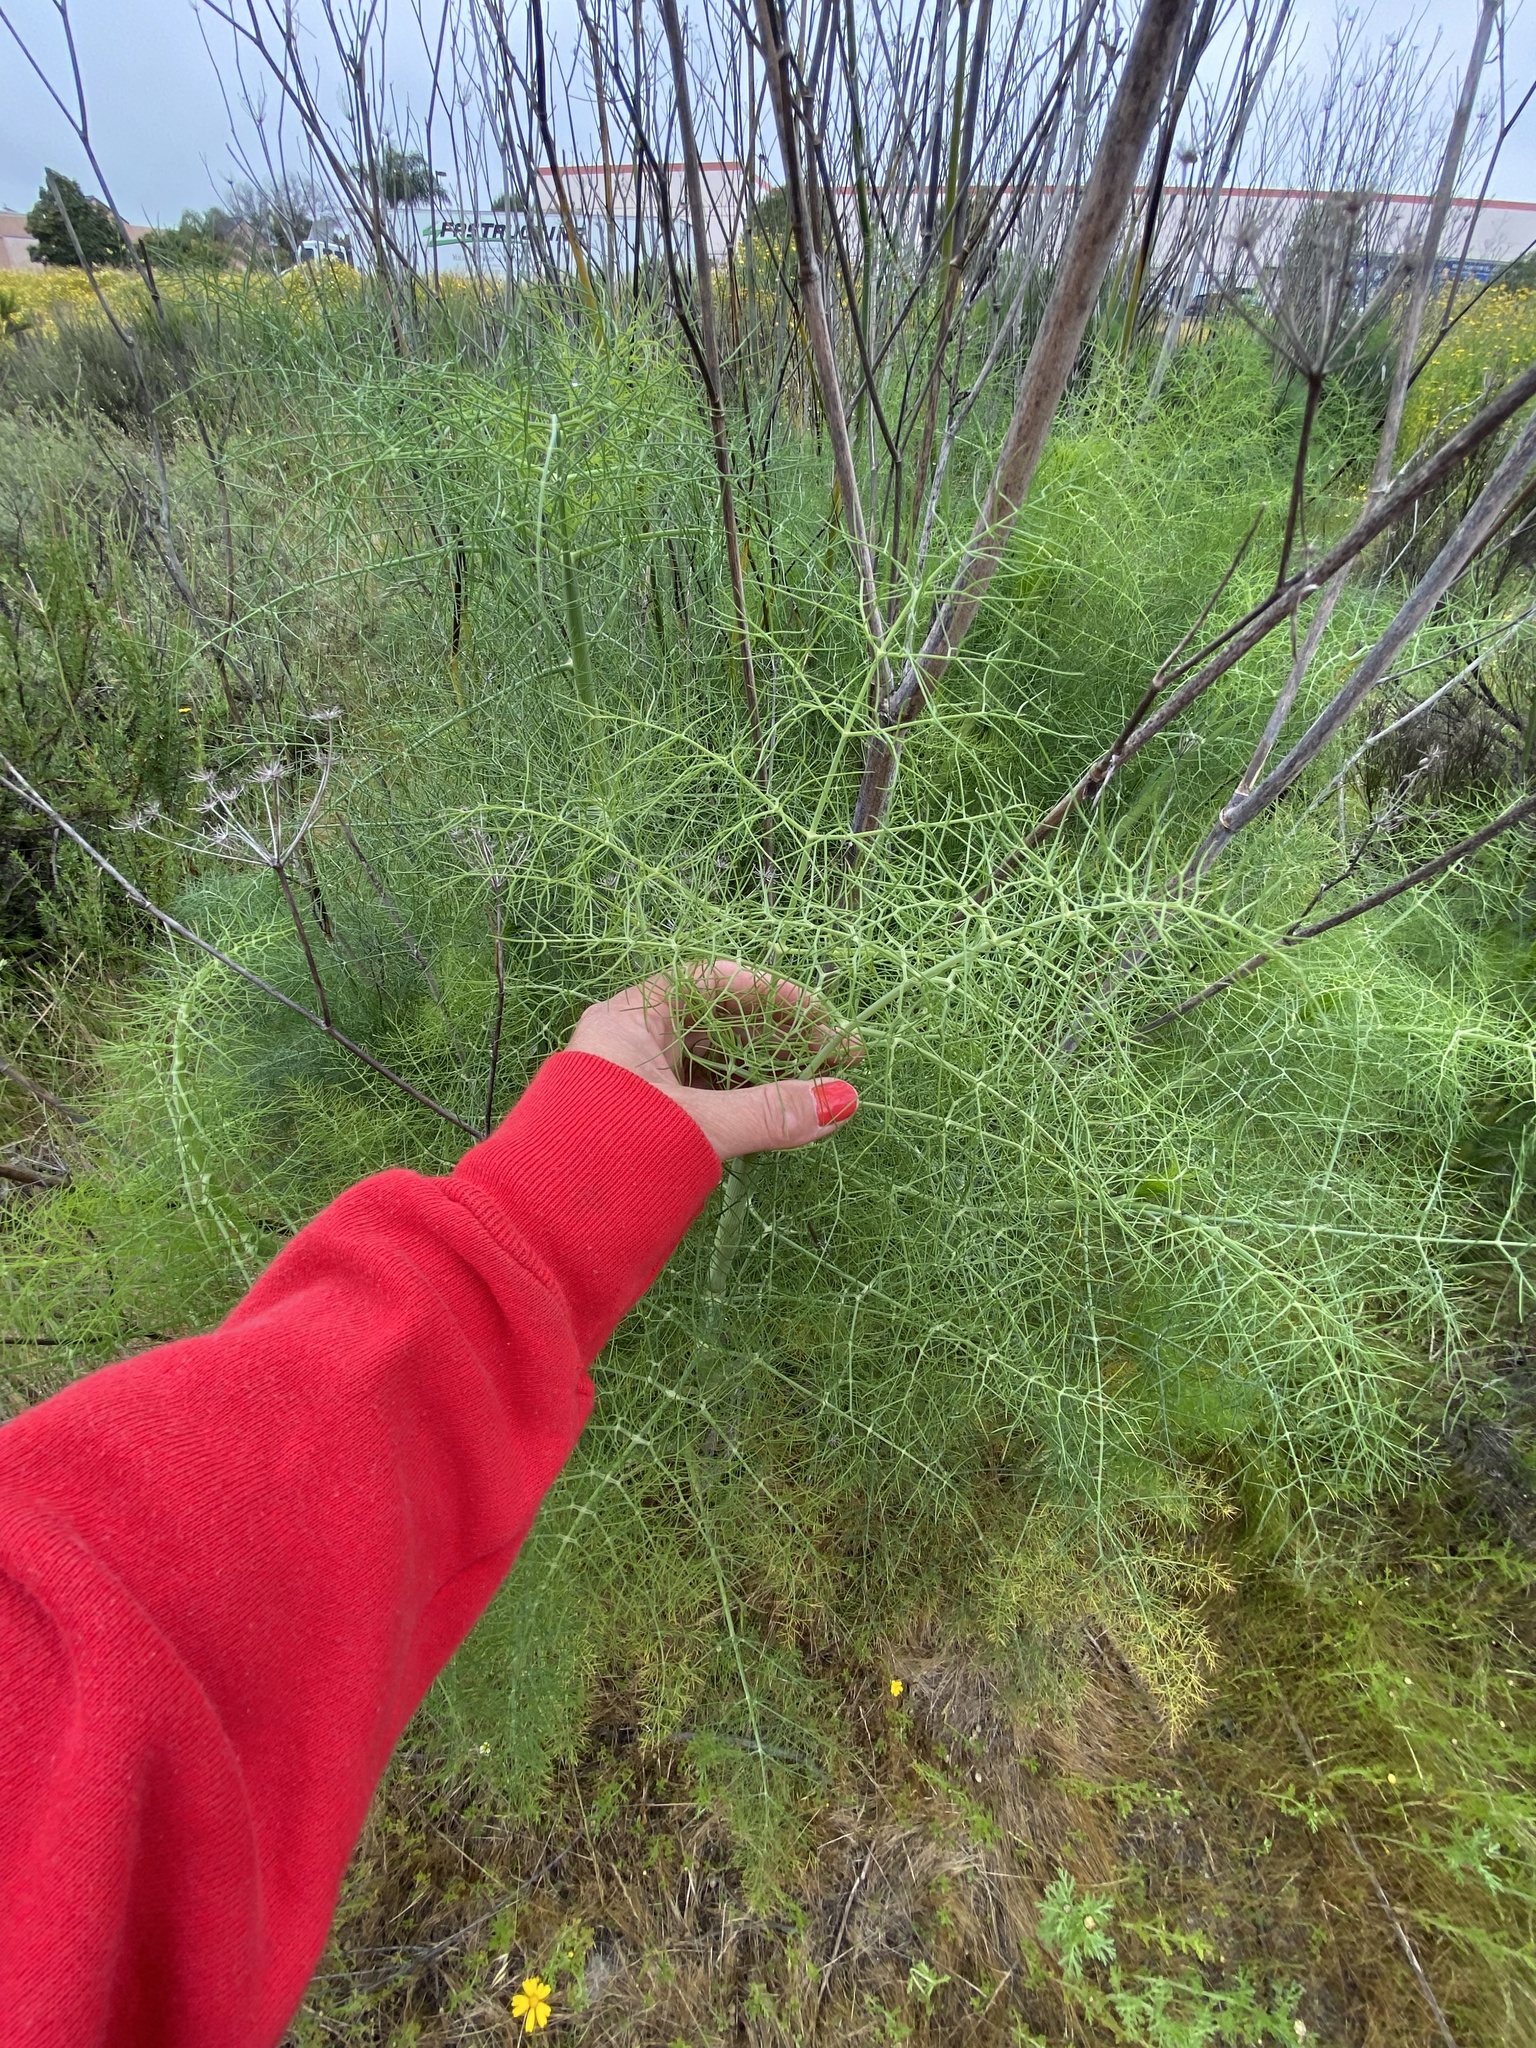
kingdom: Plantae
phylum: Tracheophyta
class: Magnoliopsida
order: Apiales
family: Apiaceae
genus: Foeniculum
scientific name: Foeniculum vulgare
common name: Fennel
